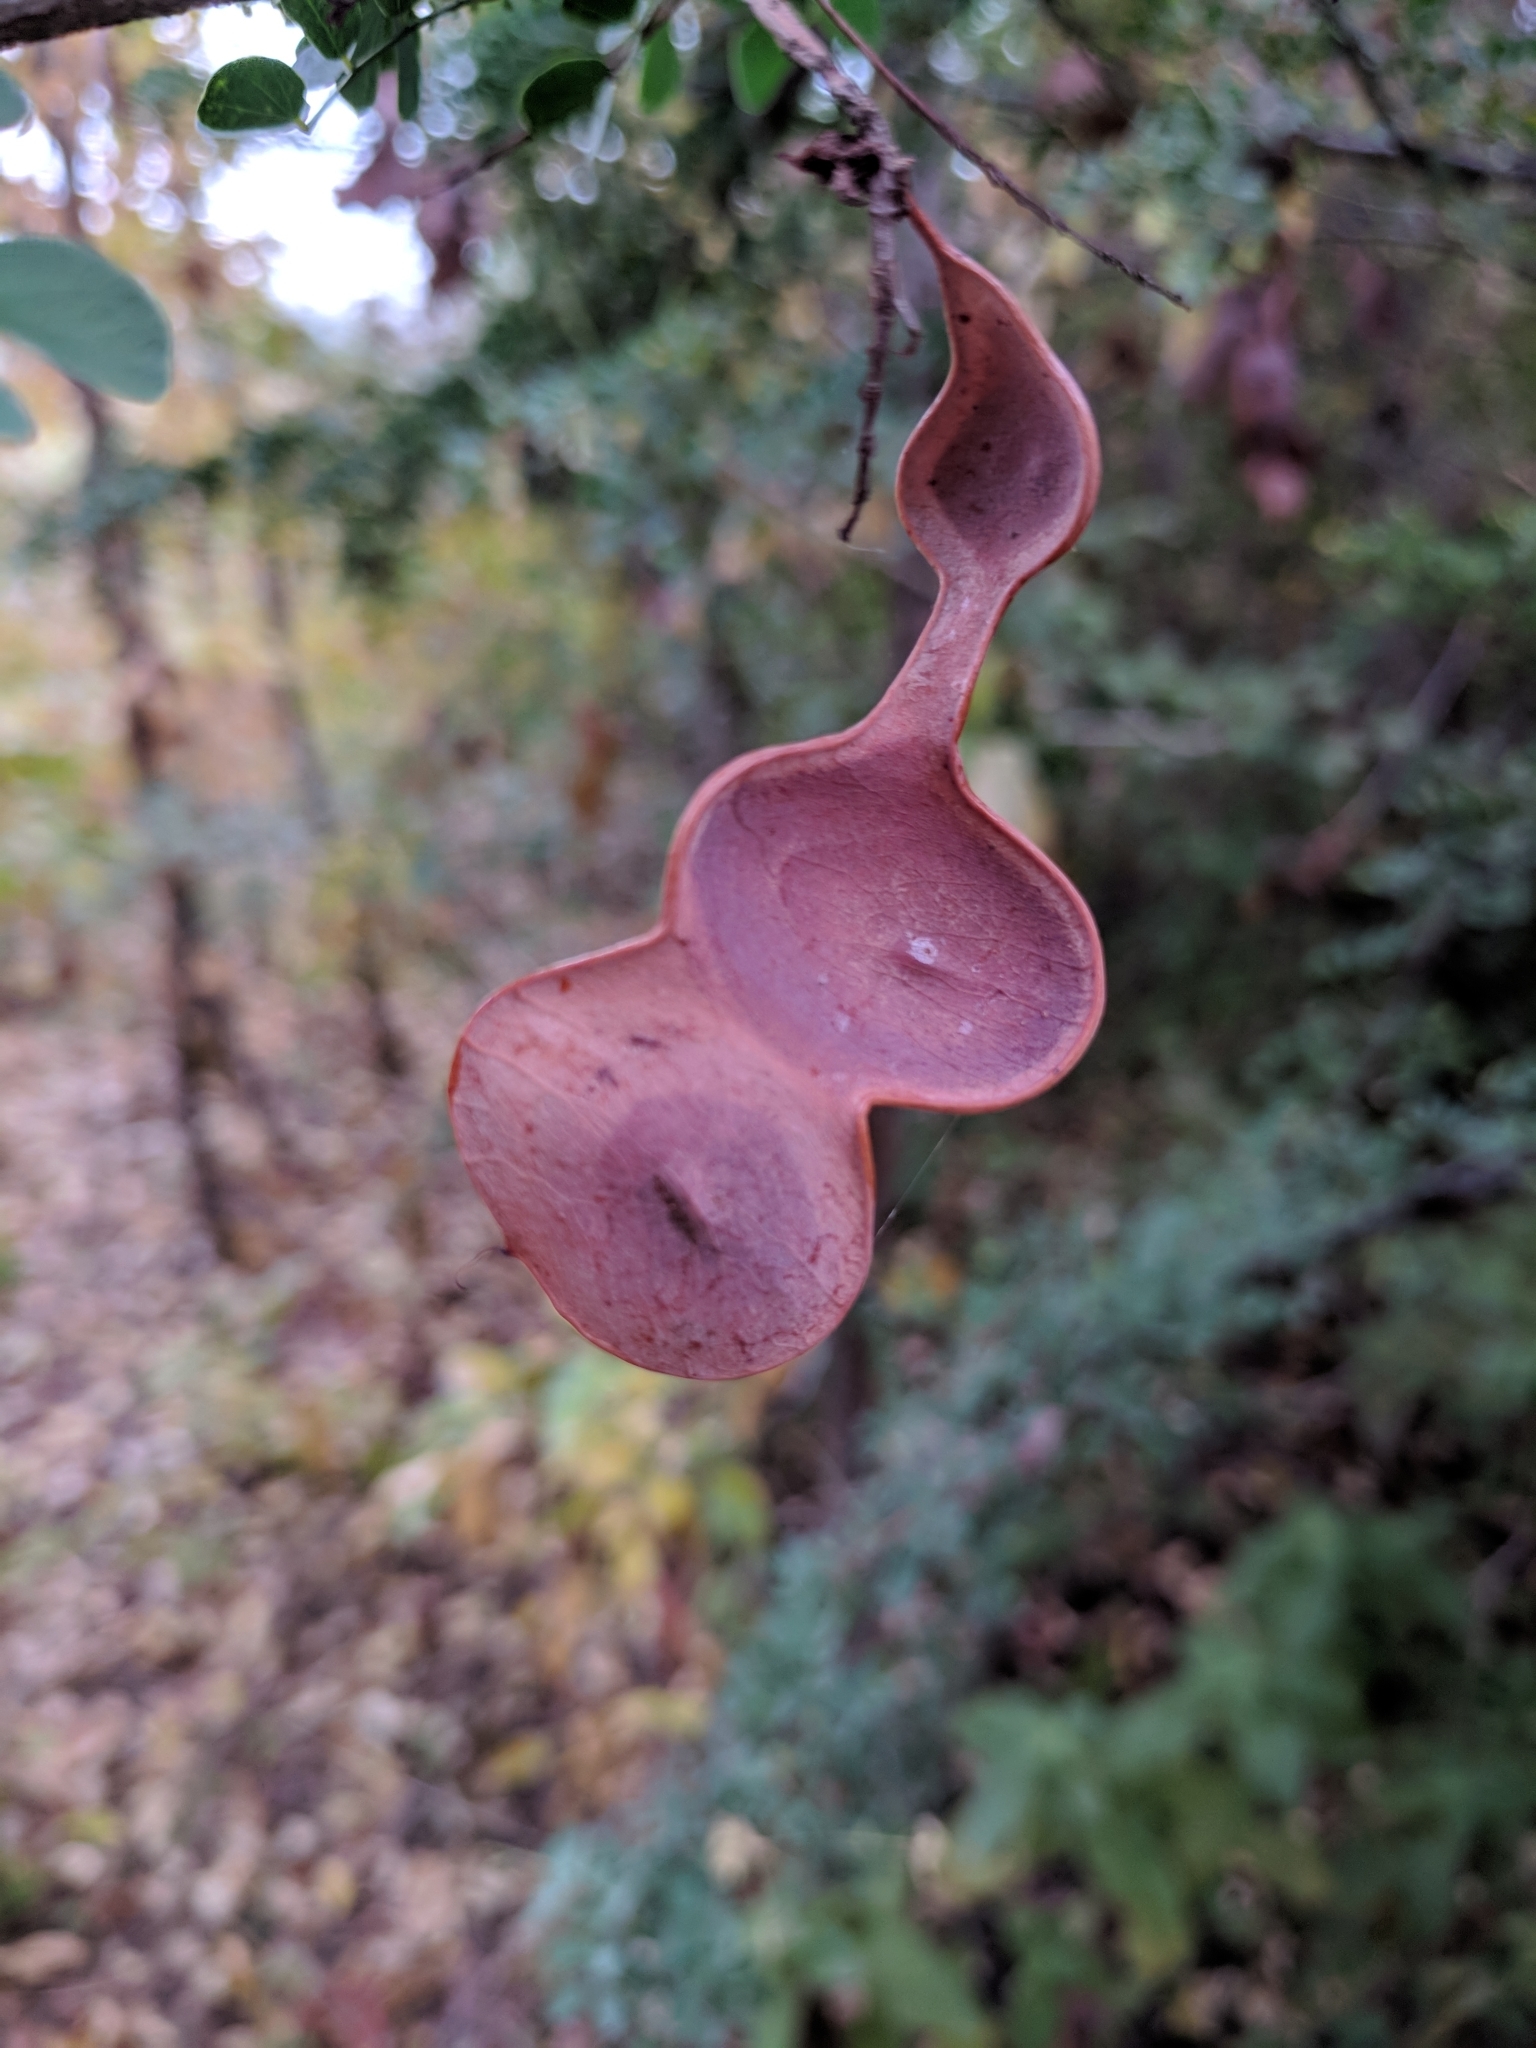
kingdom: Plantae
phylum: Tracheophyta
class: Magnoliopsida
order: Fabales
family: Fabaceae
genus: Senegalia
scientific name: Senegalia wrightii
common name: Texas cat's-claw
